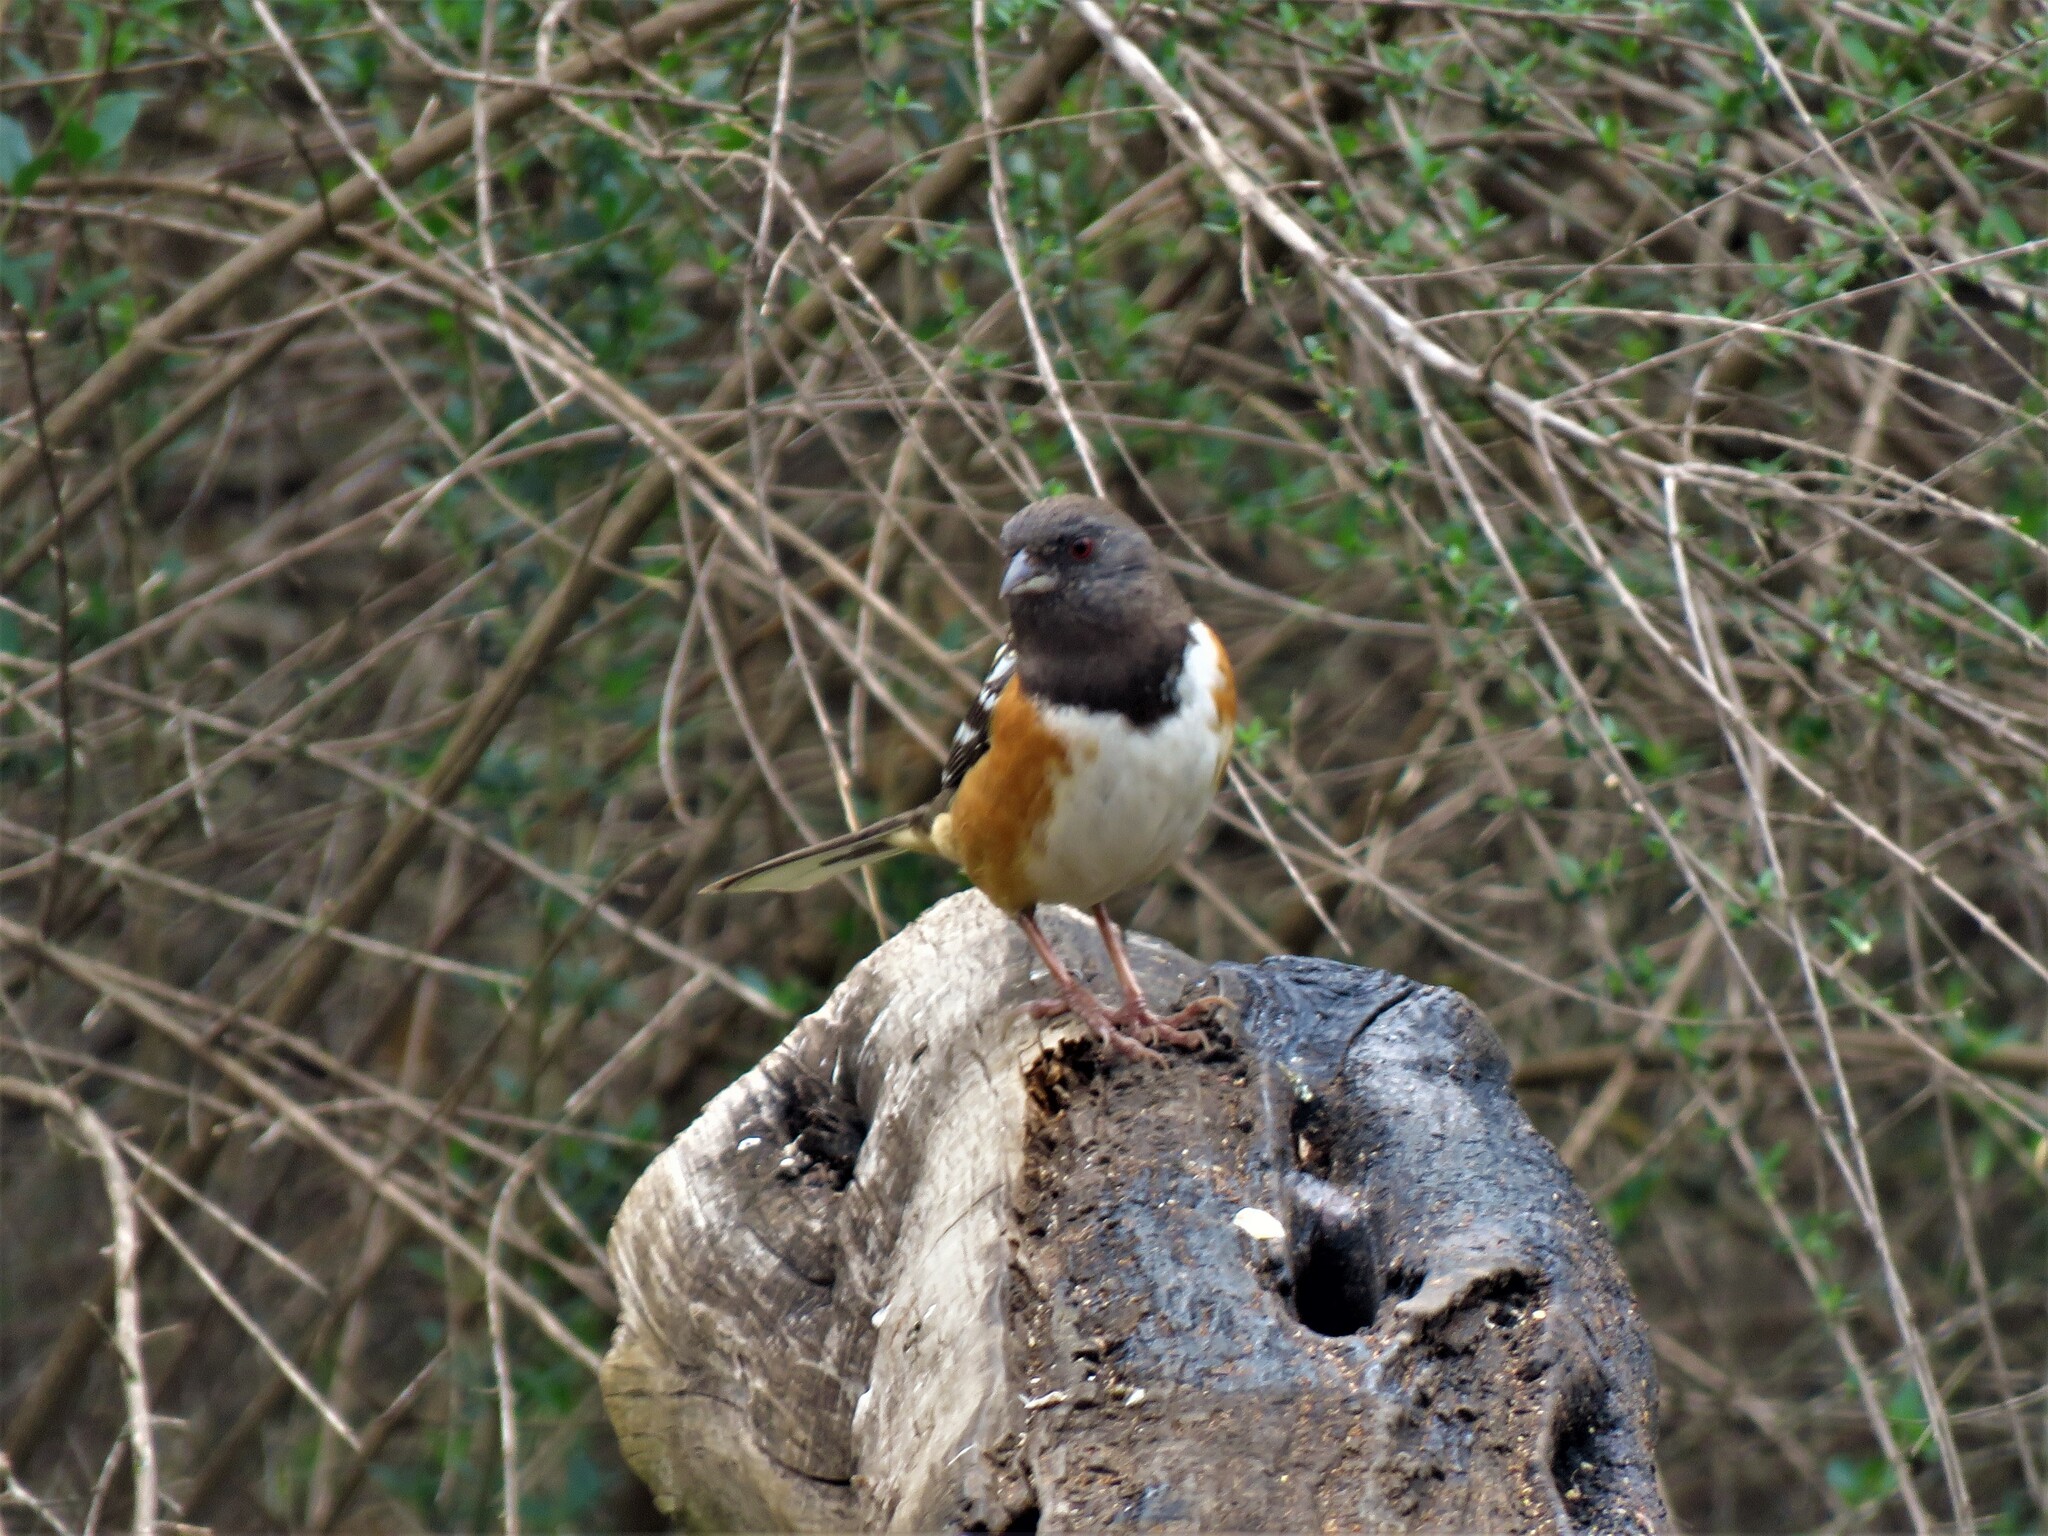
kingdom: Animalia
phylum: Chordata
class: Aves
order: Passeriformes
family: Passerellidae
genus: Pipilo
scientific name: Pipilo maculatus
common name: Spotted towhee
